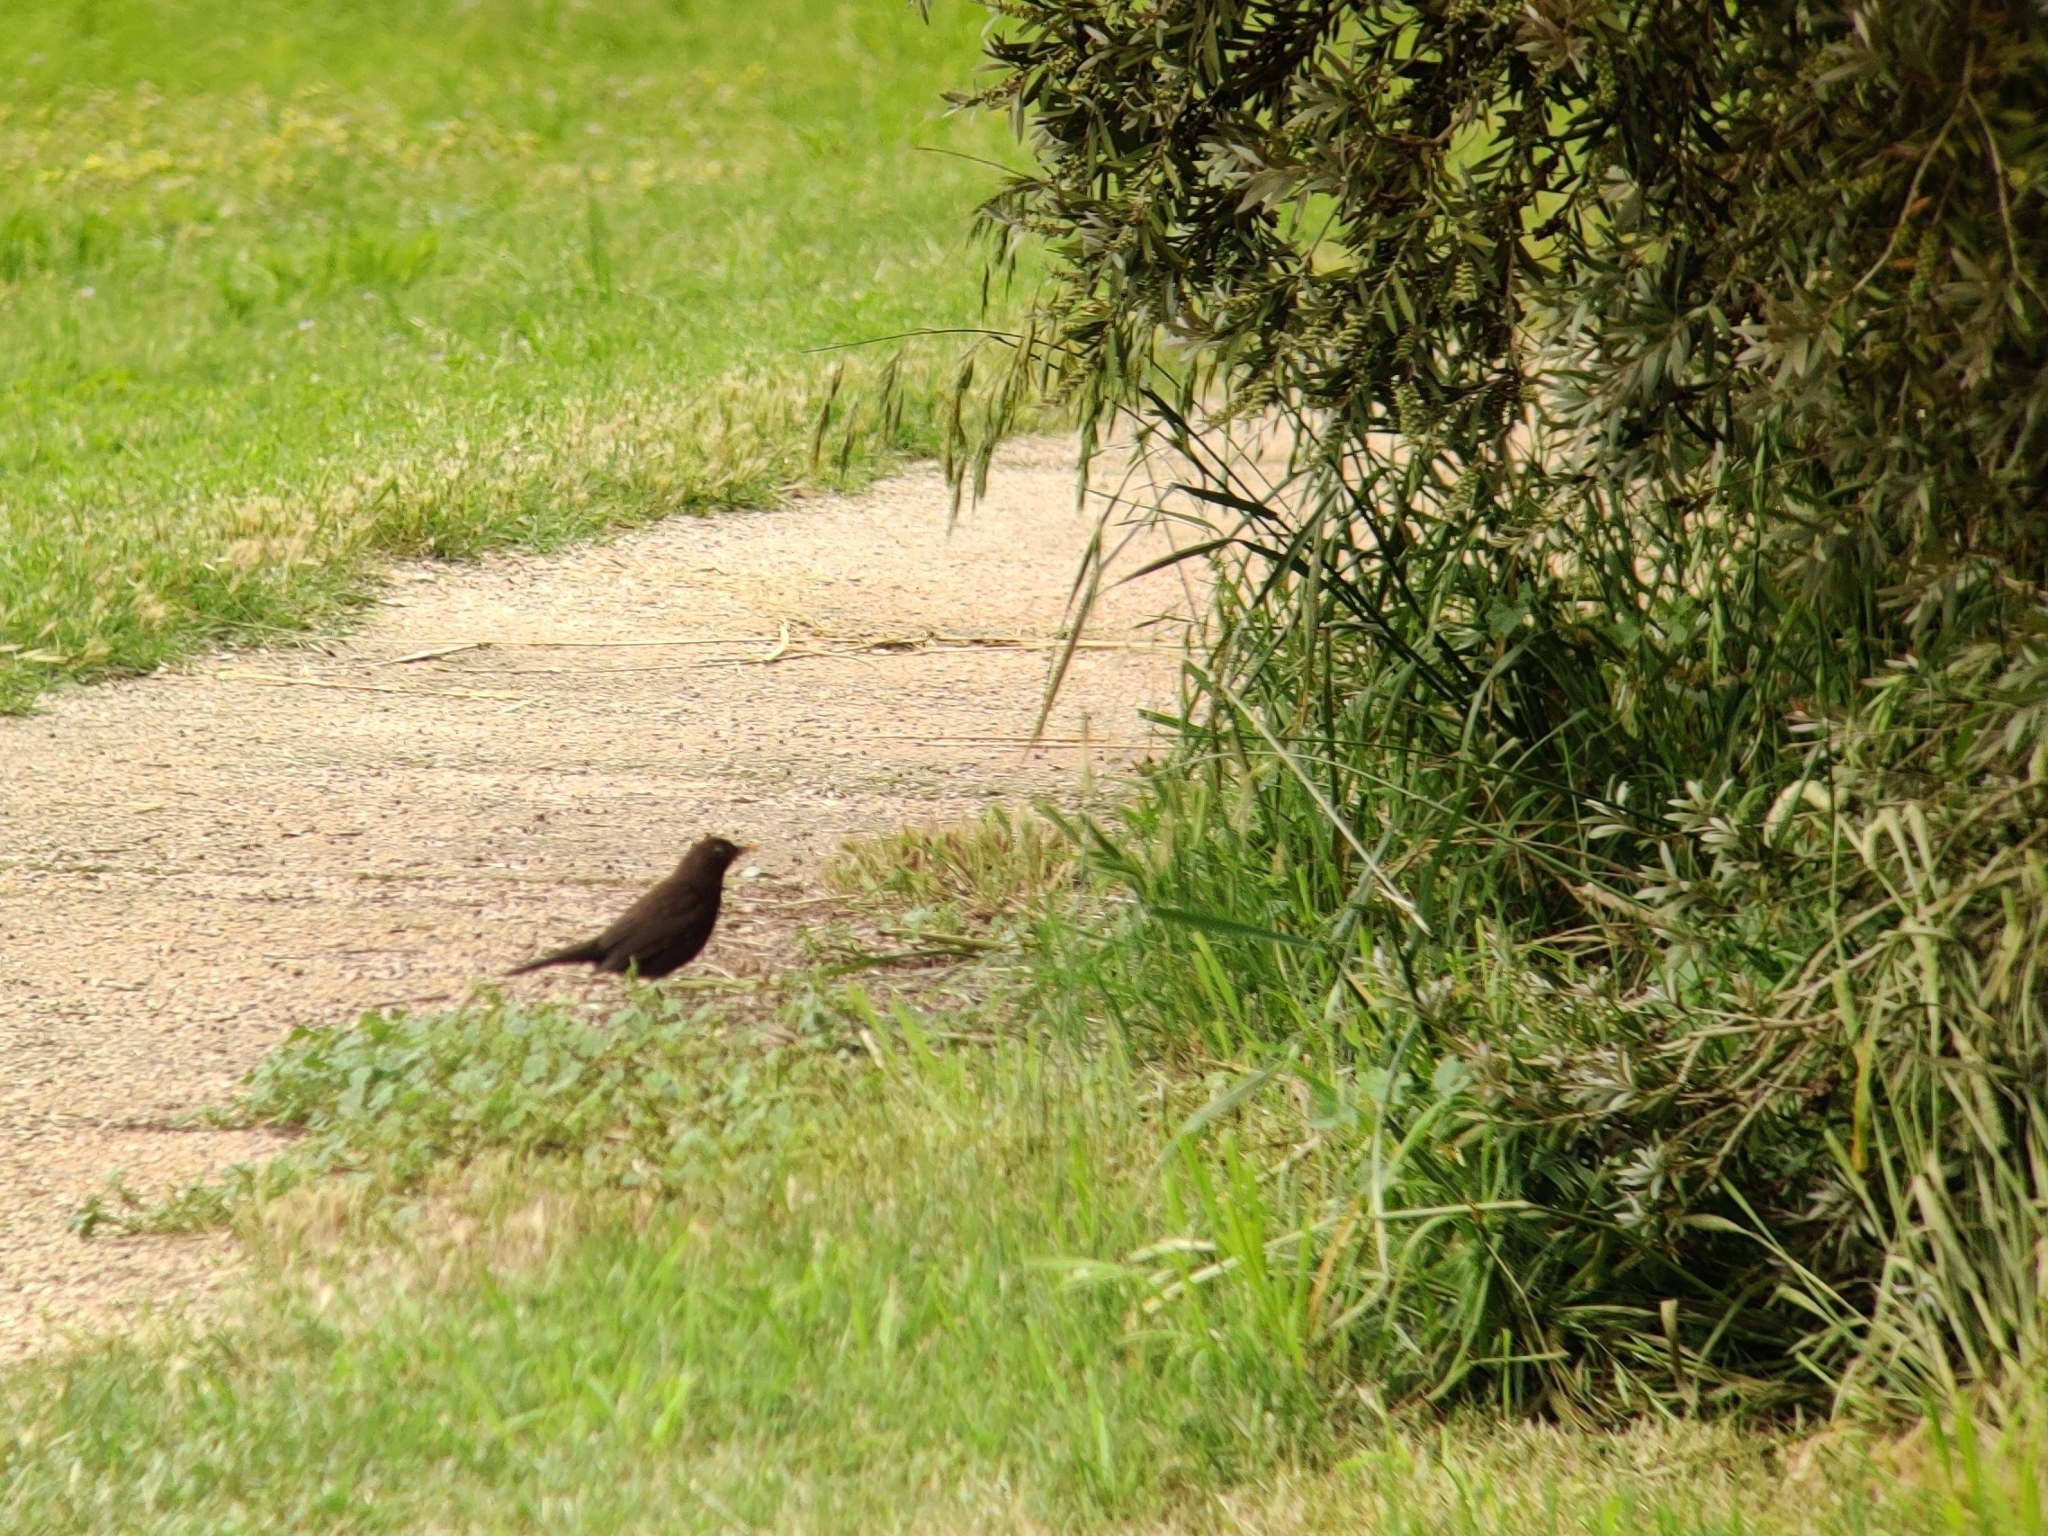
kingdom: Animalia
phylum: Chordata
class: Aves
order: Passeriformes
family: Turdidae
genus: Turdus
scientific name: Turdus merula
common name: Common blackbird
